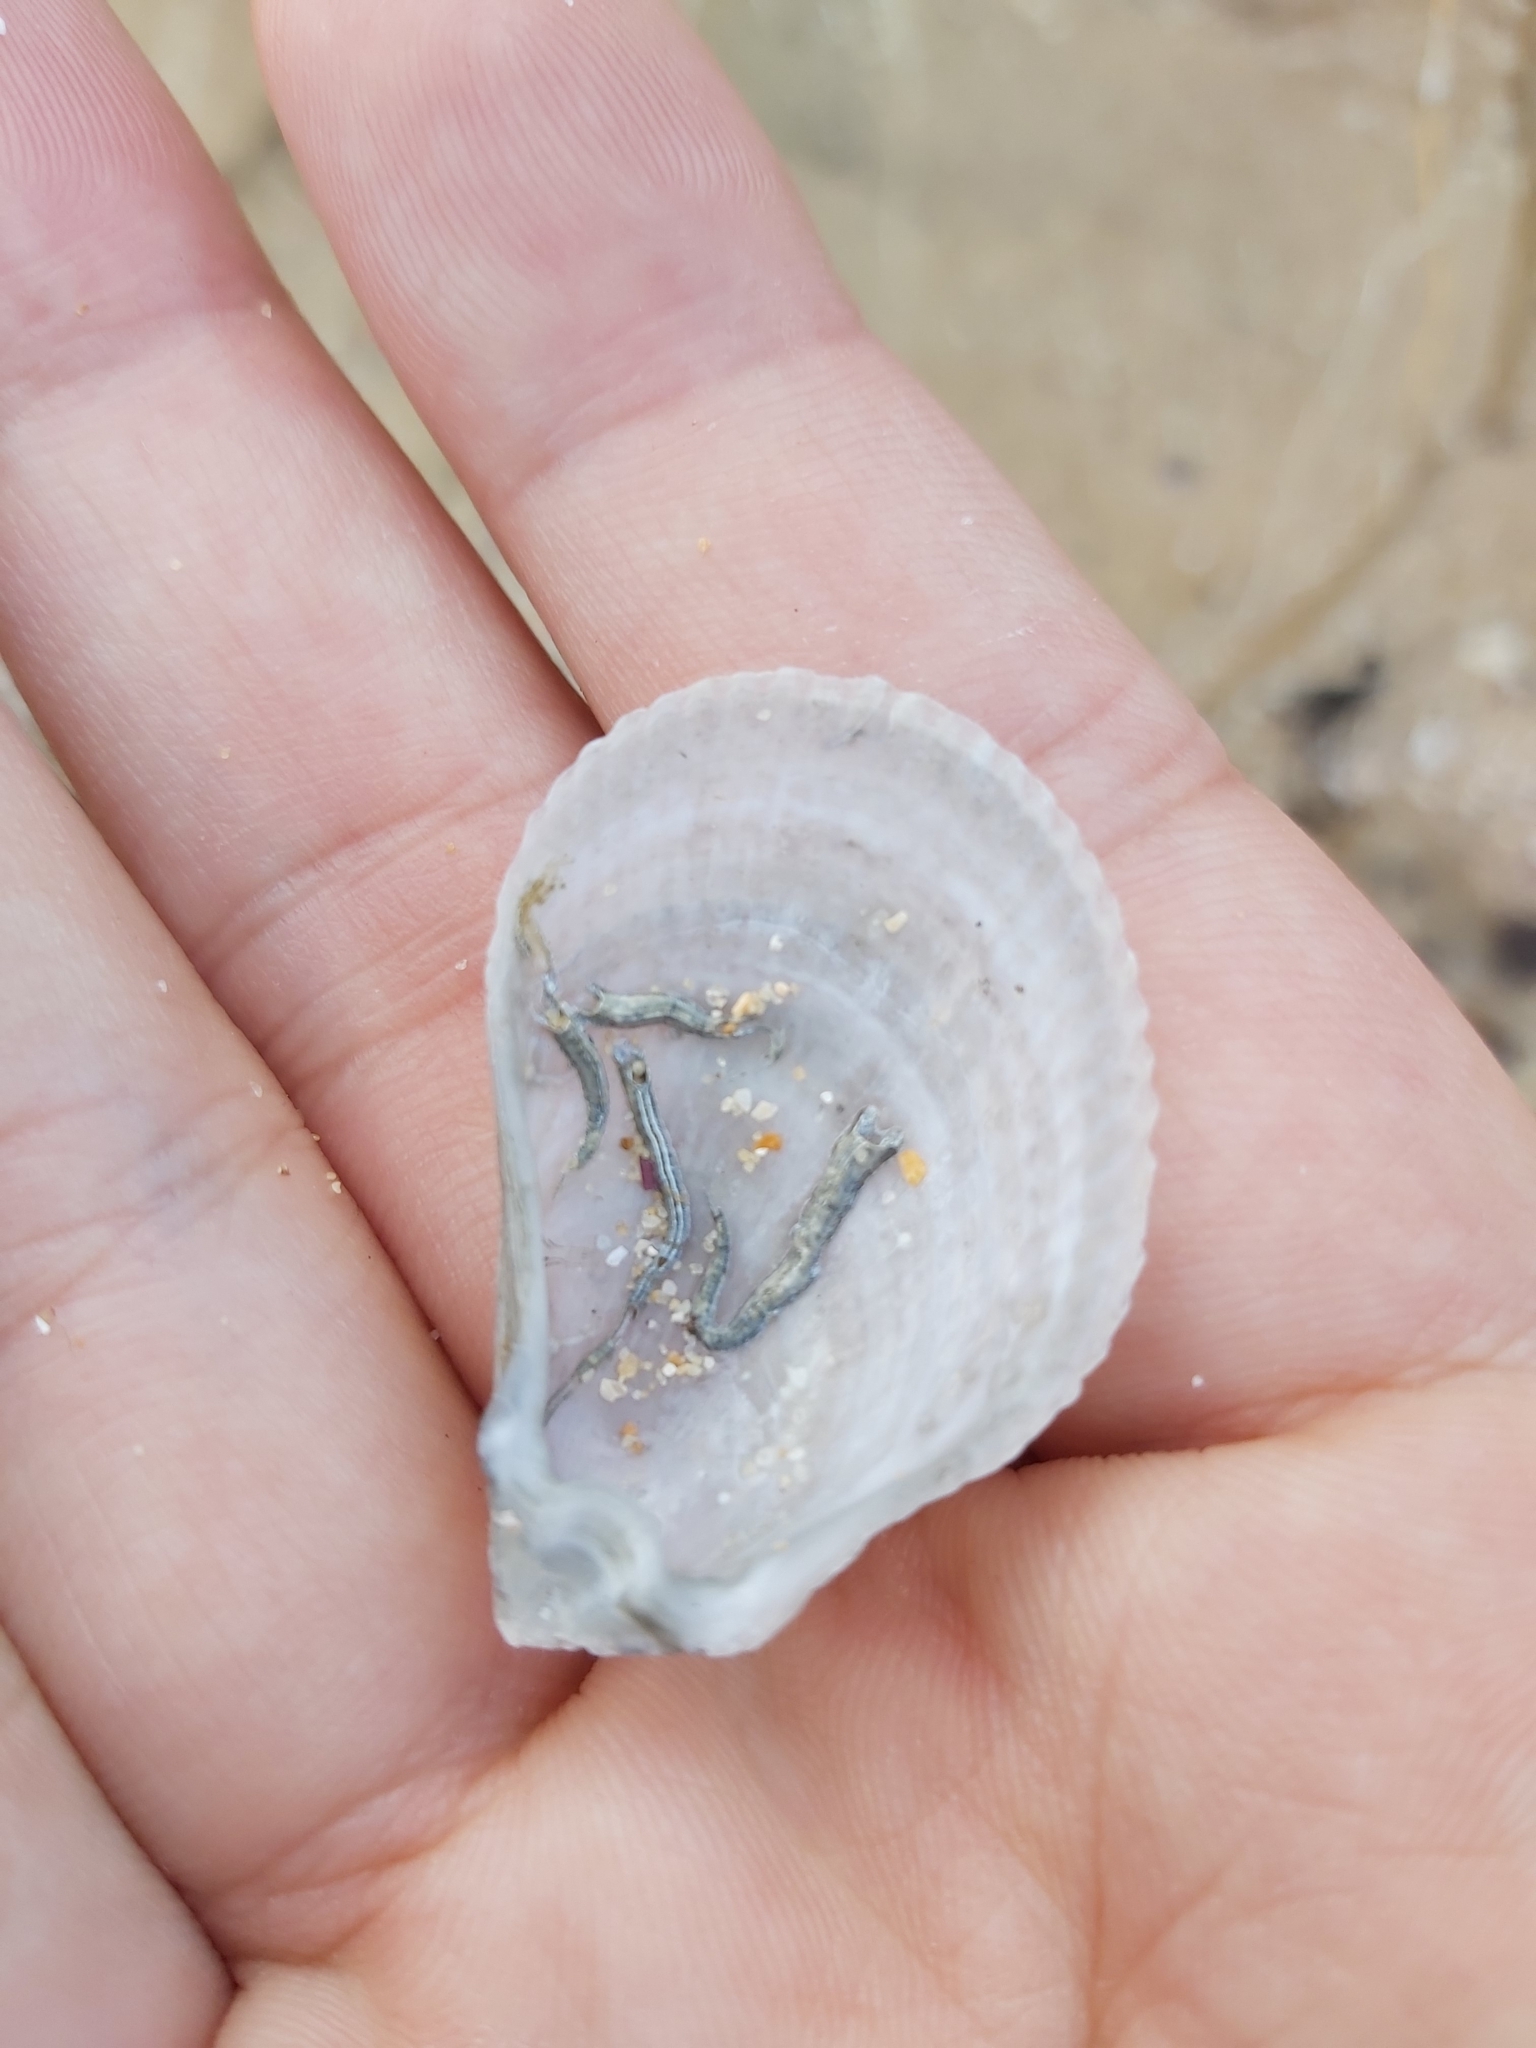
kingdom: Animalia
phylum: Mollusca
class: Bivalvia
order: Limida
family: Limidae
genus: Lima
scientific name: Lima nimbifer
